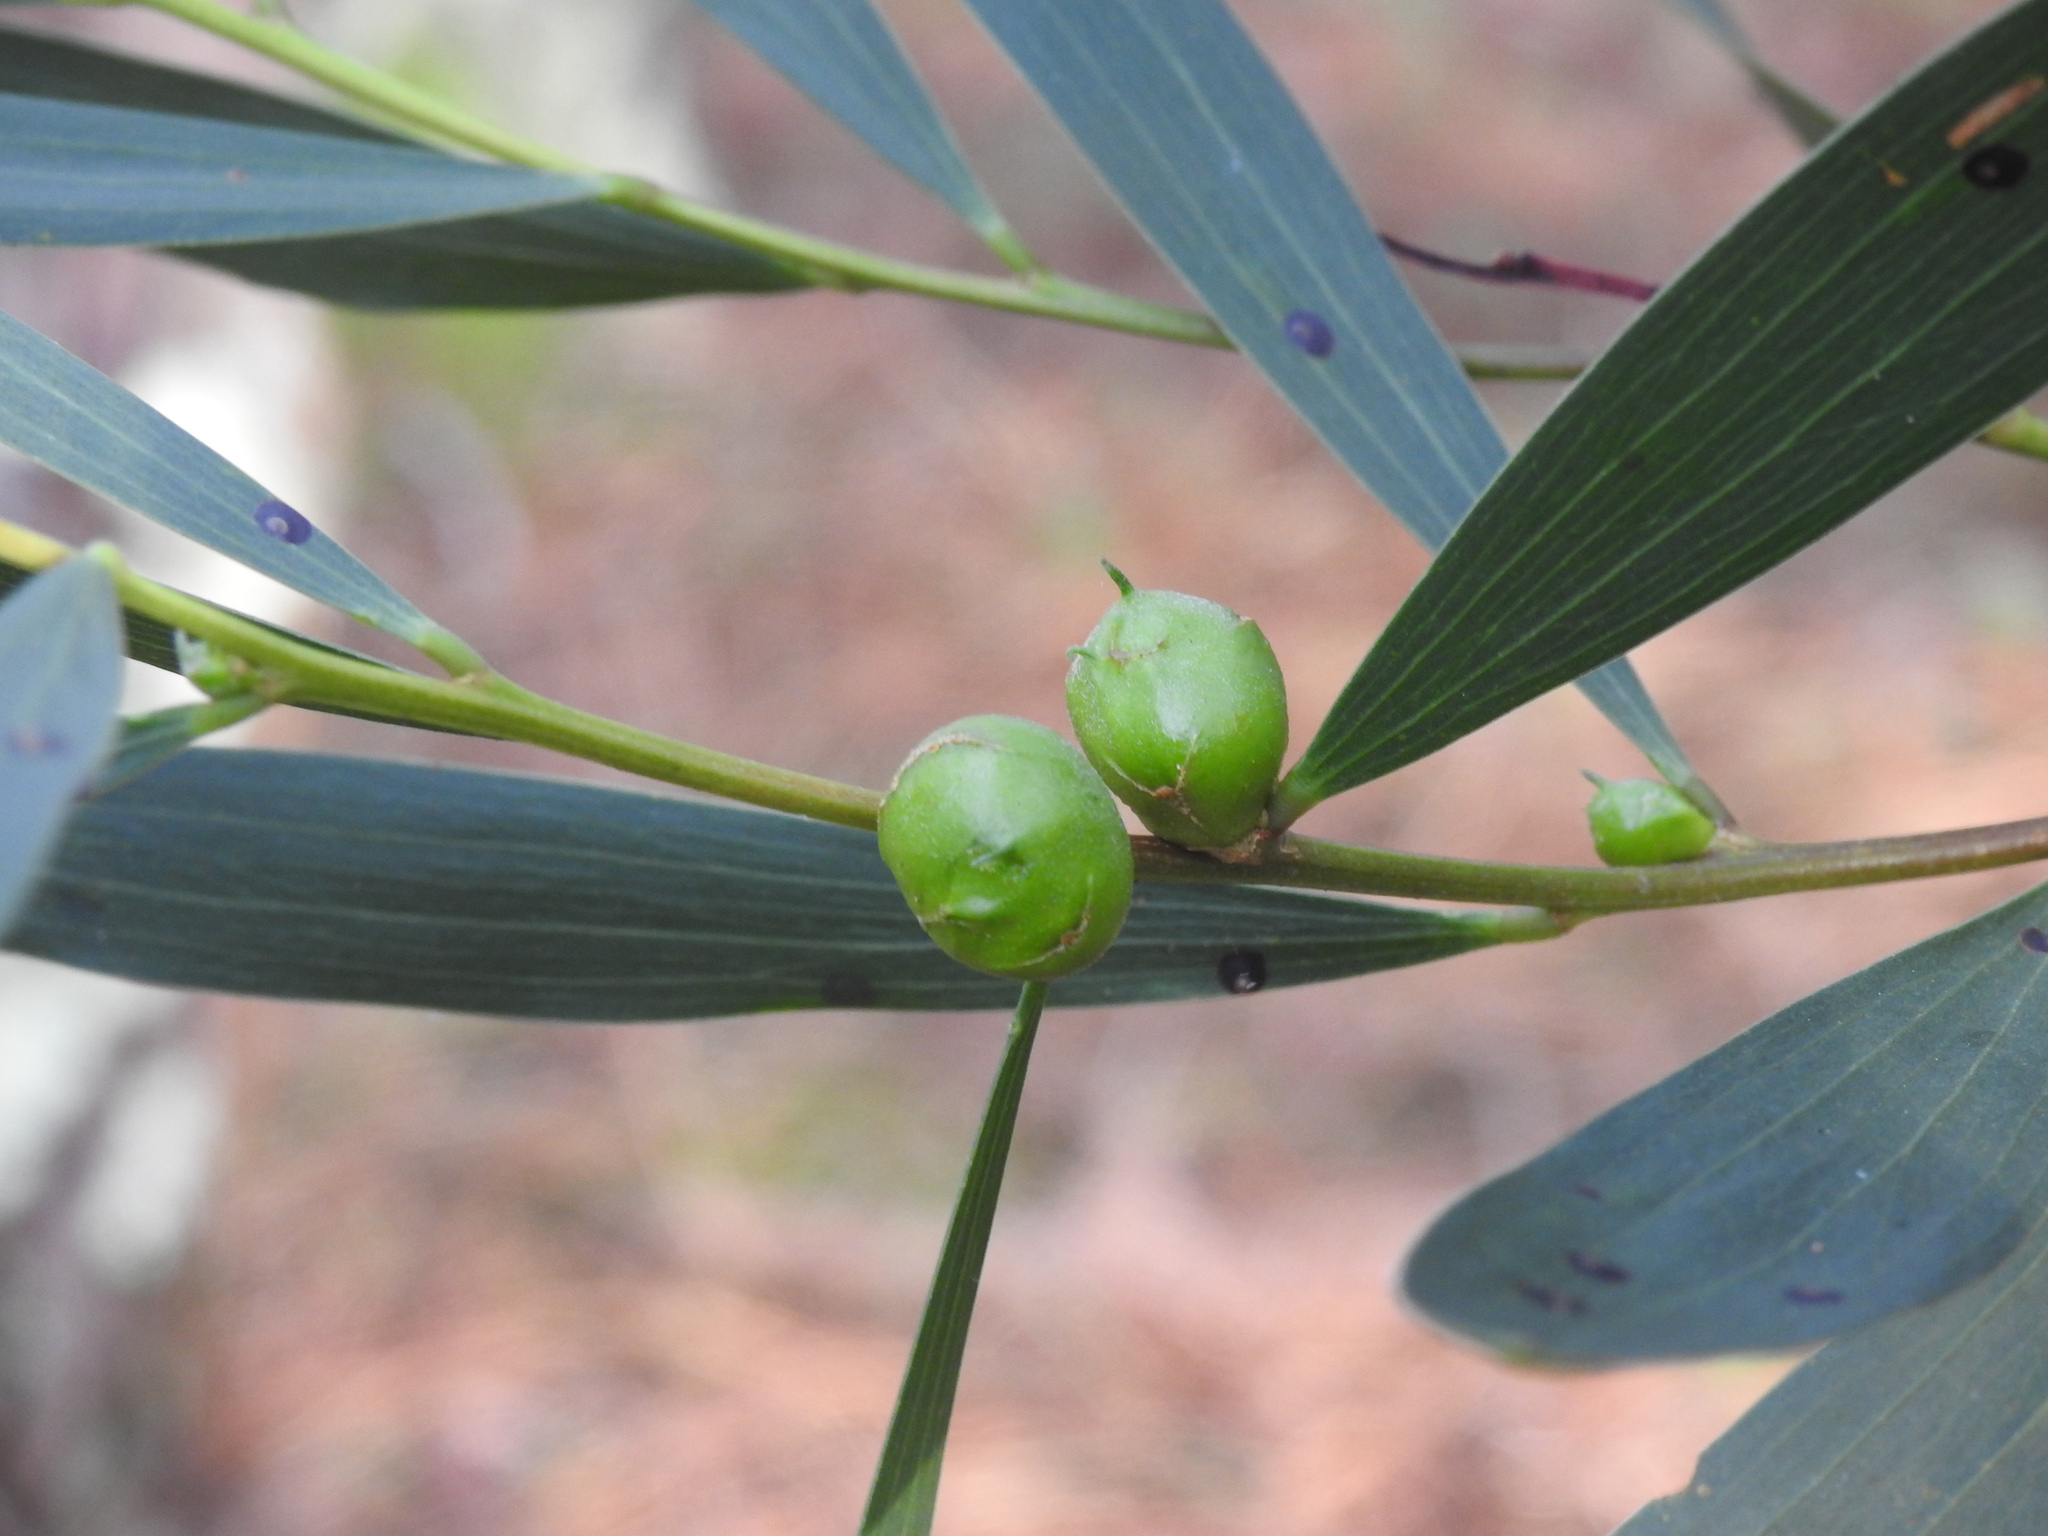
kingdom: Animalia
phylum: Arthropoda
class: Insecta
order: Hymenoptera
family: Pteromalidae
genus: Trichilogaster
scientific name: Trichilogaster acaciaelongifoliae
